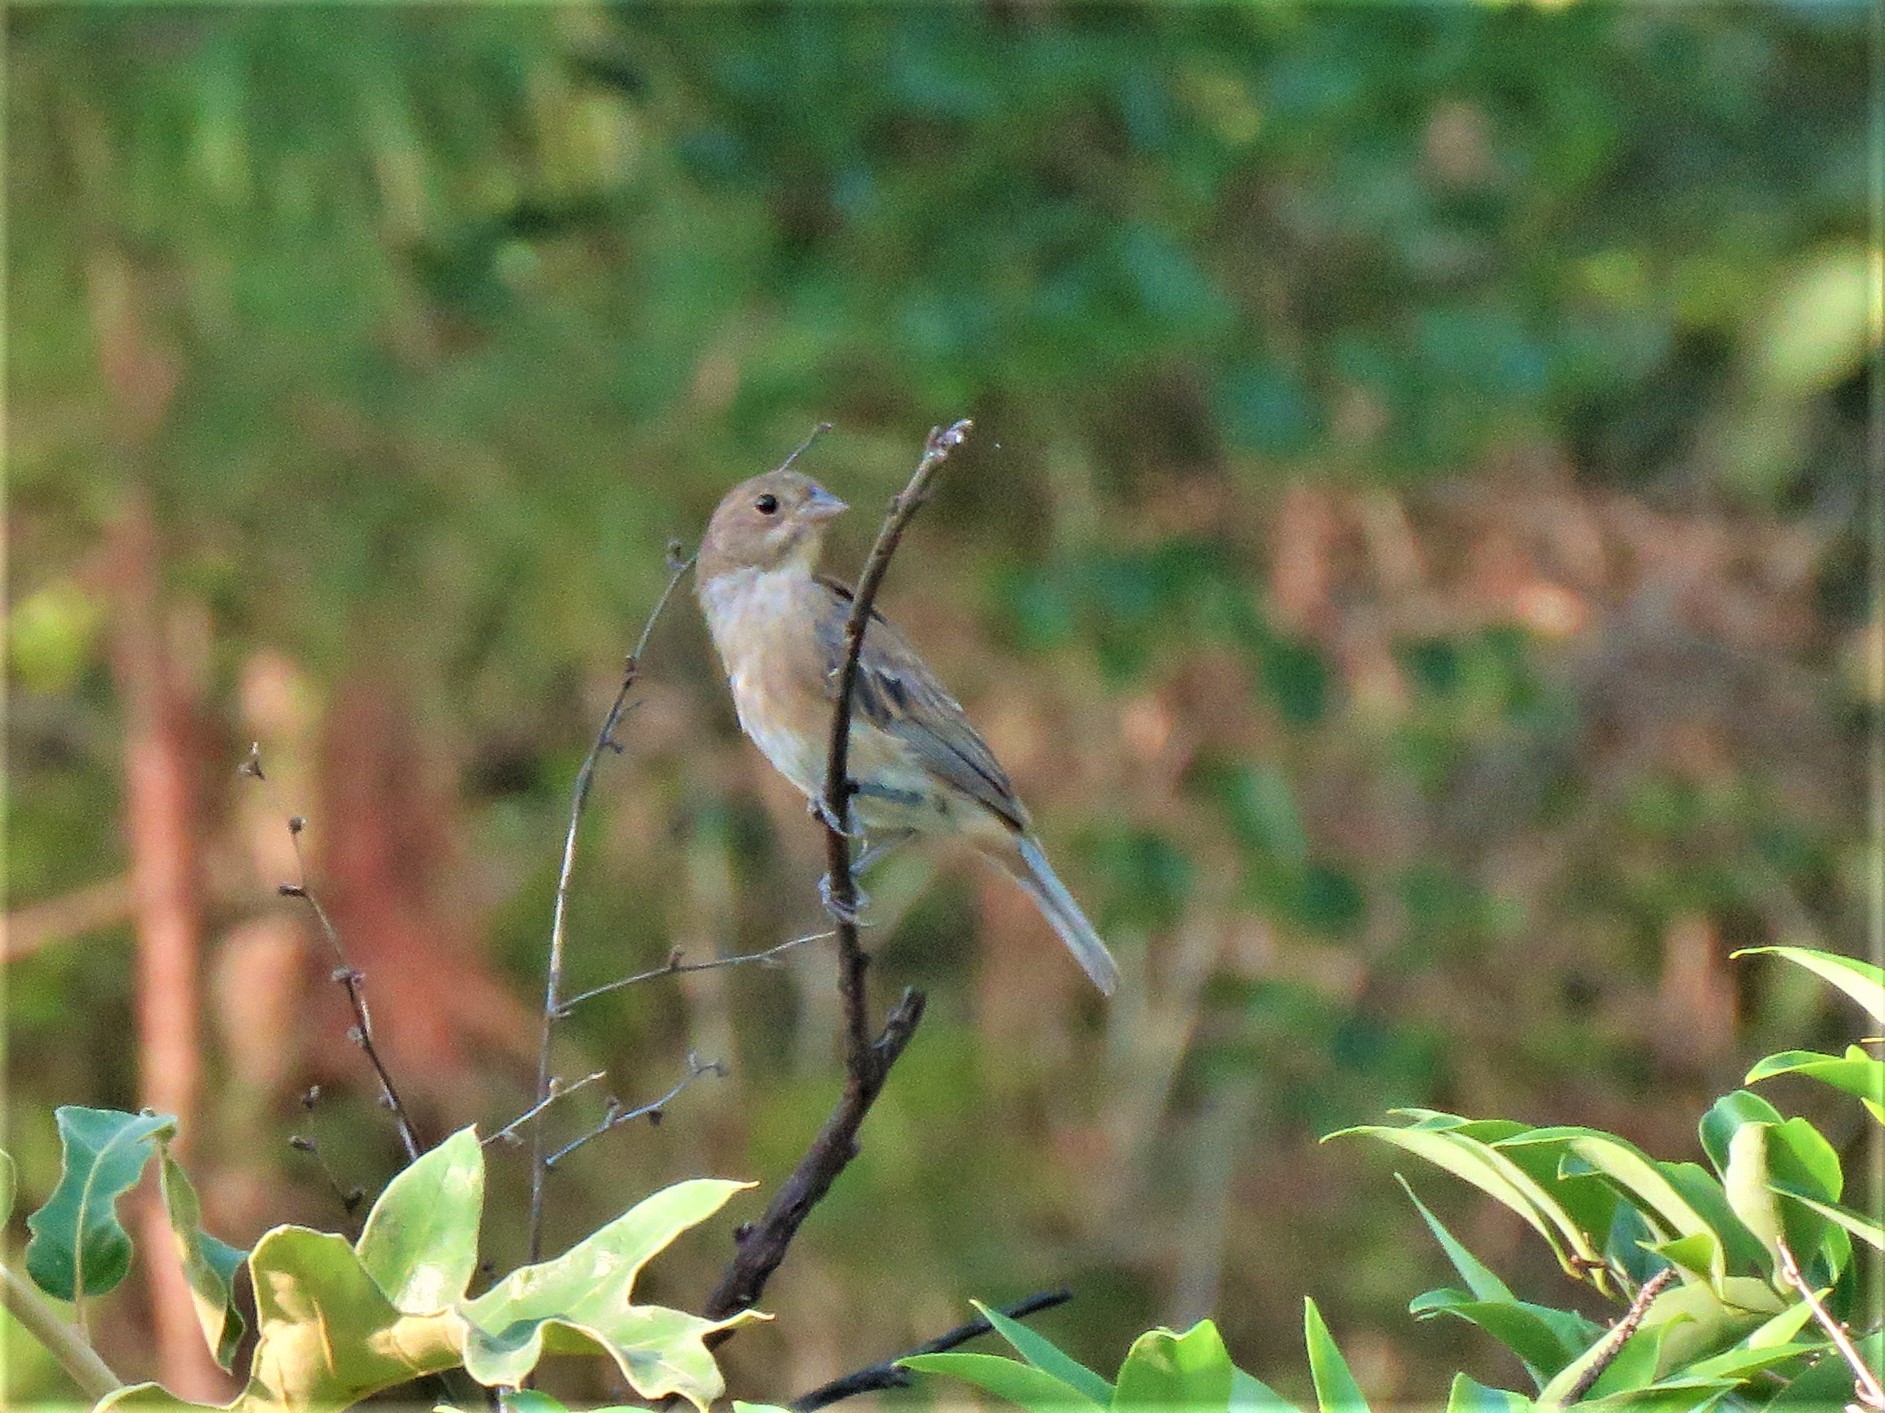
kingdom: Animalia
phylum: Chordata
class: Aves
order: Passeriformes
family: Cardinalidae
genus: Passerina
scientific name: Passerina cyanea
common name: Indigo bunting
